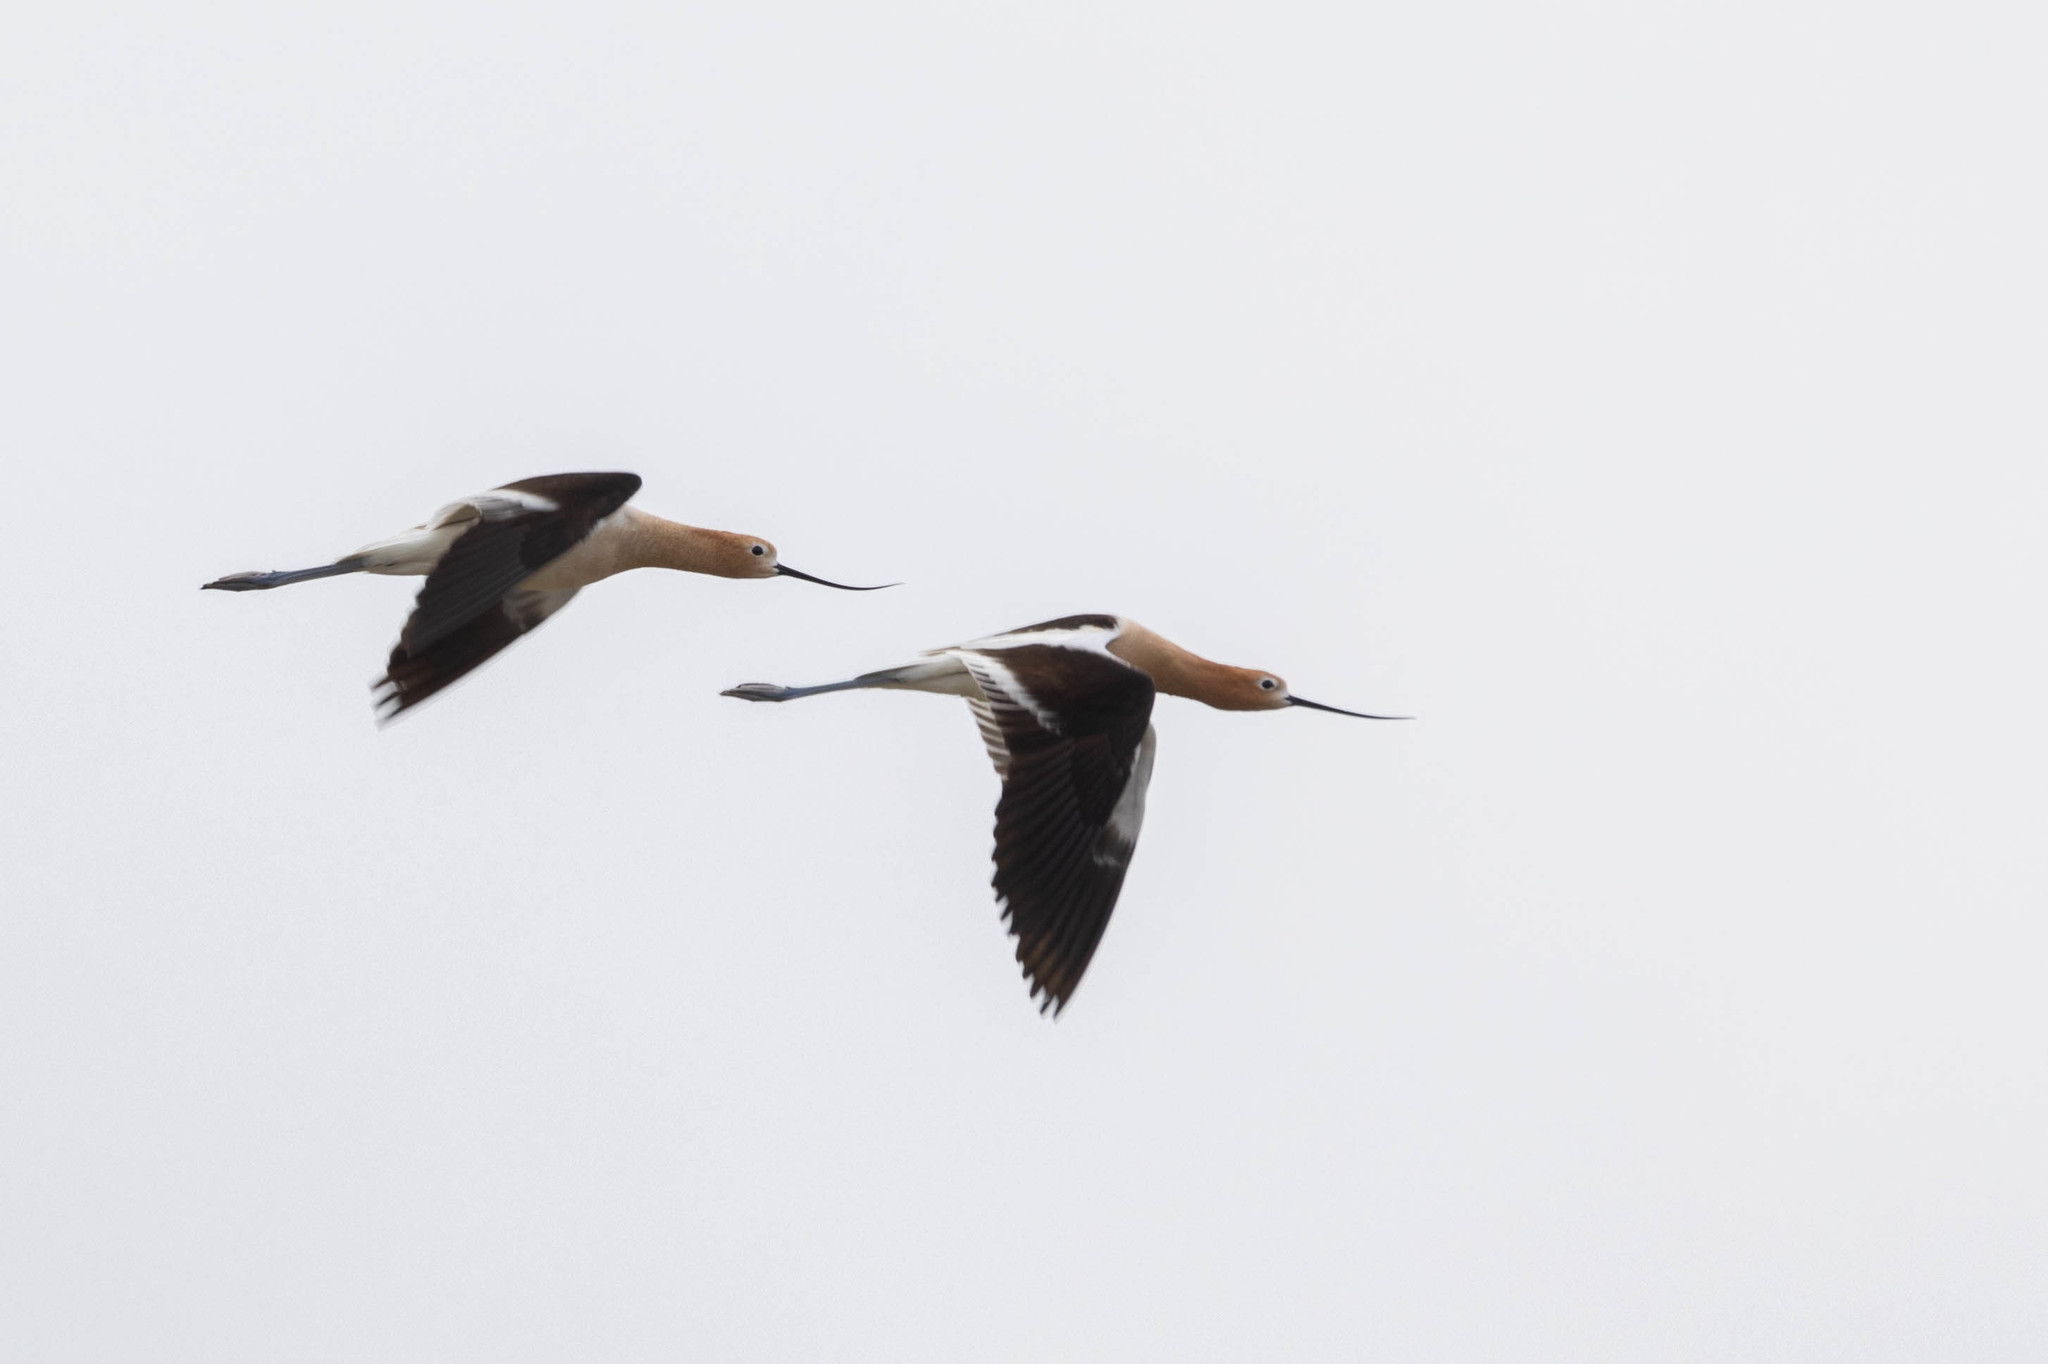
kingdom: Animalia
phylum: Chordata
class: Aves
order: Charadriiformes
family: Recurvirostridae
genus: Recurvirostra
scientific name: Recurvirostra americana
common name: American avocet
